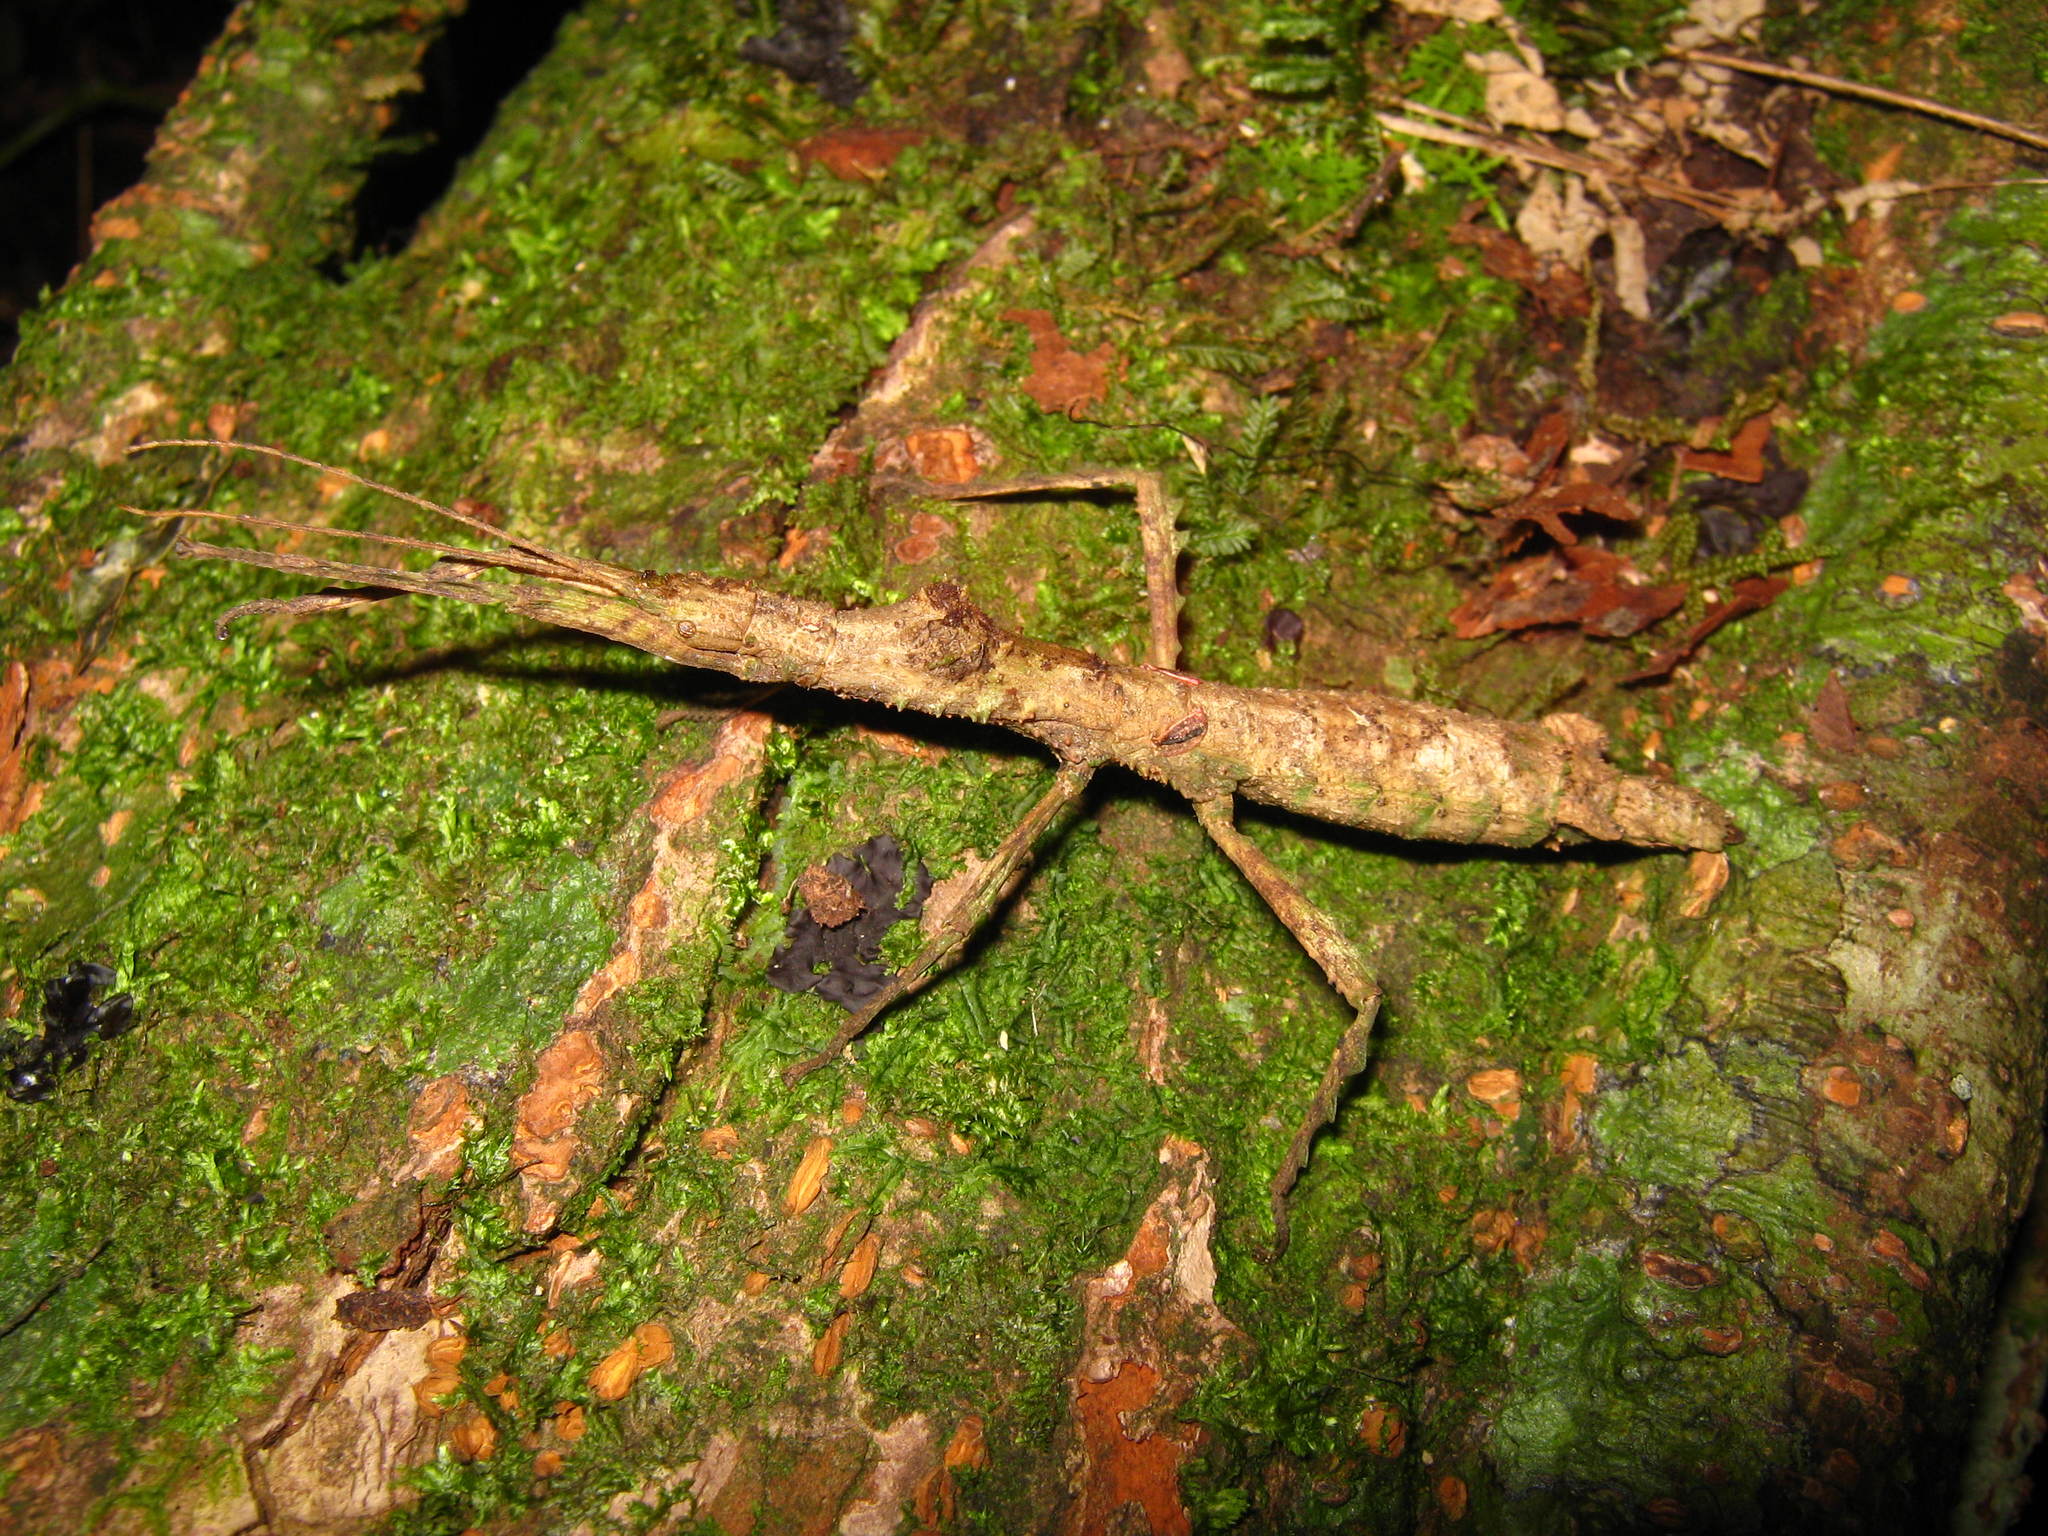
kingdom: Animalia
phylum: Arthropoda
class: Insecta
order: Phasmida
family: Phasmatidae
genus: Hypocyrtus
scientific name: Hypocyrtus scythrus
